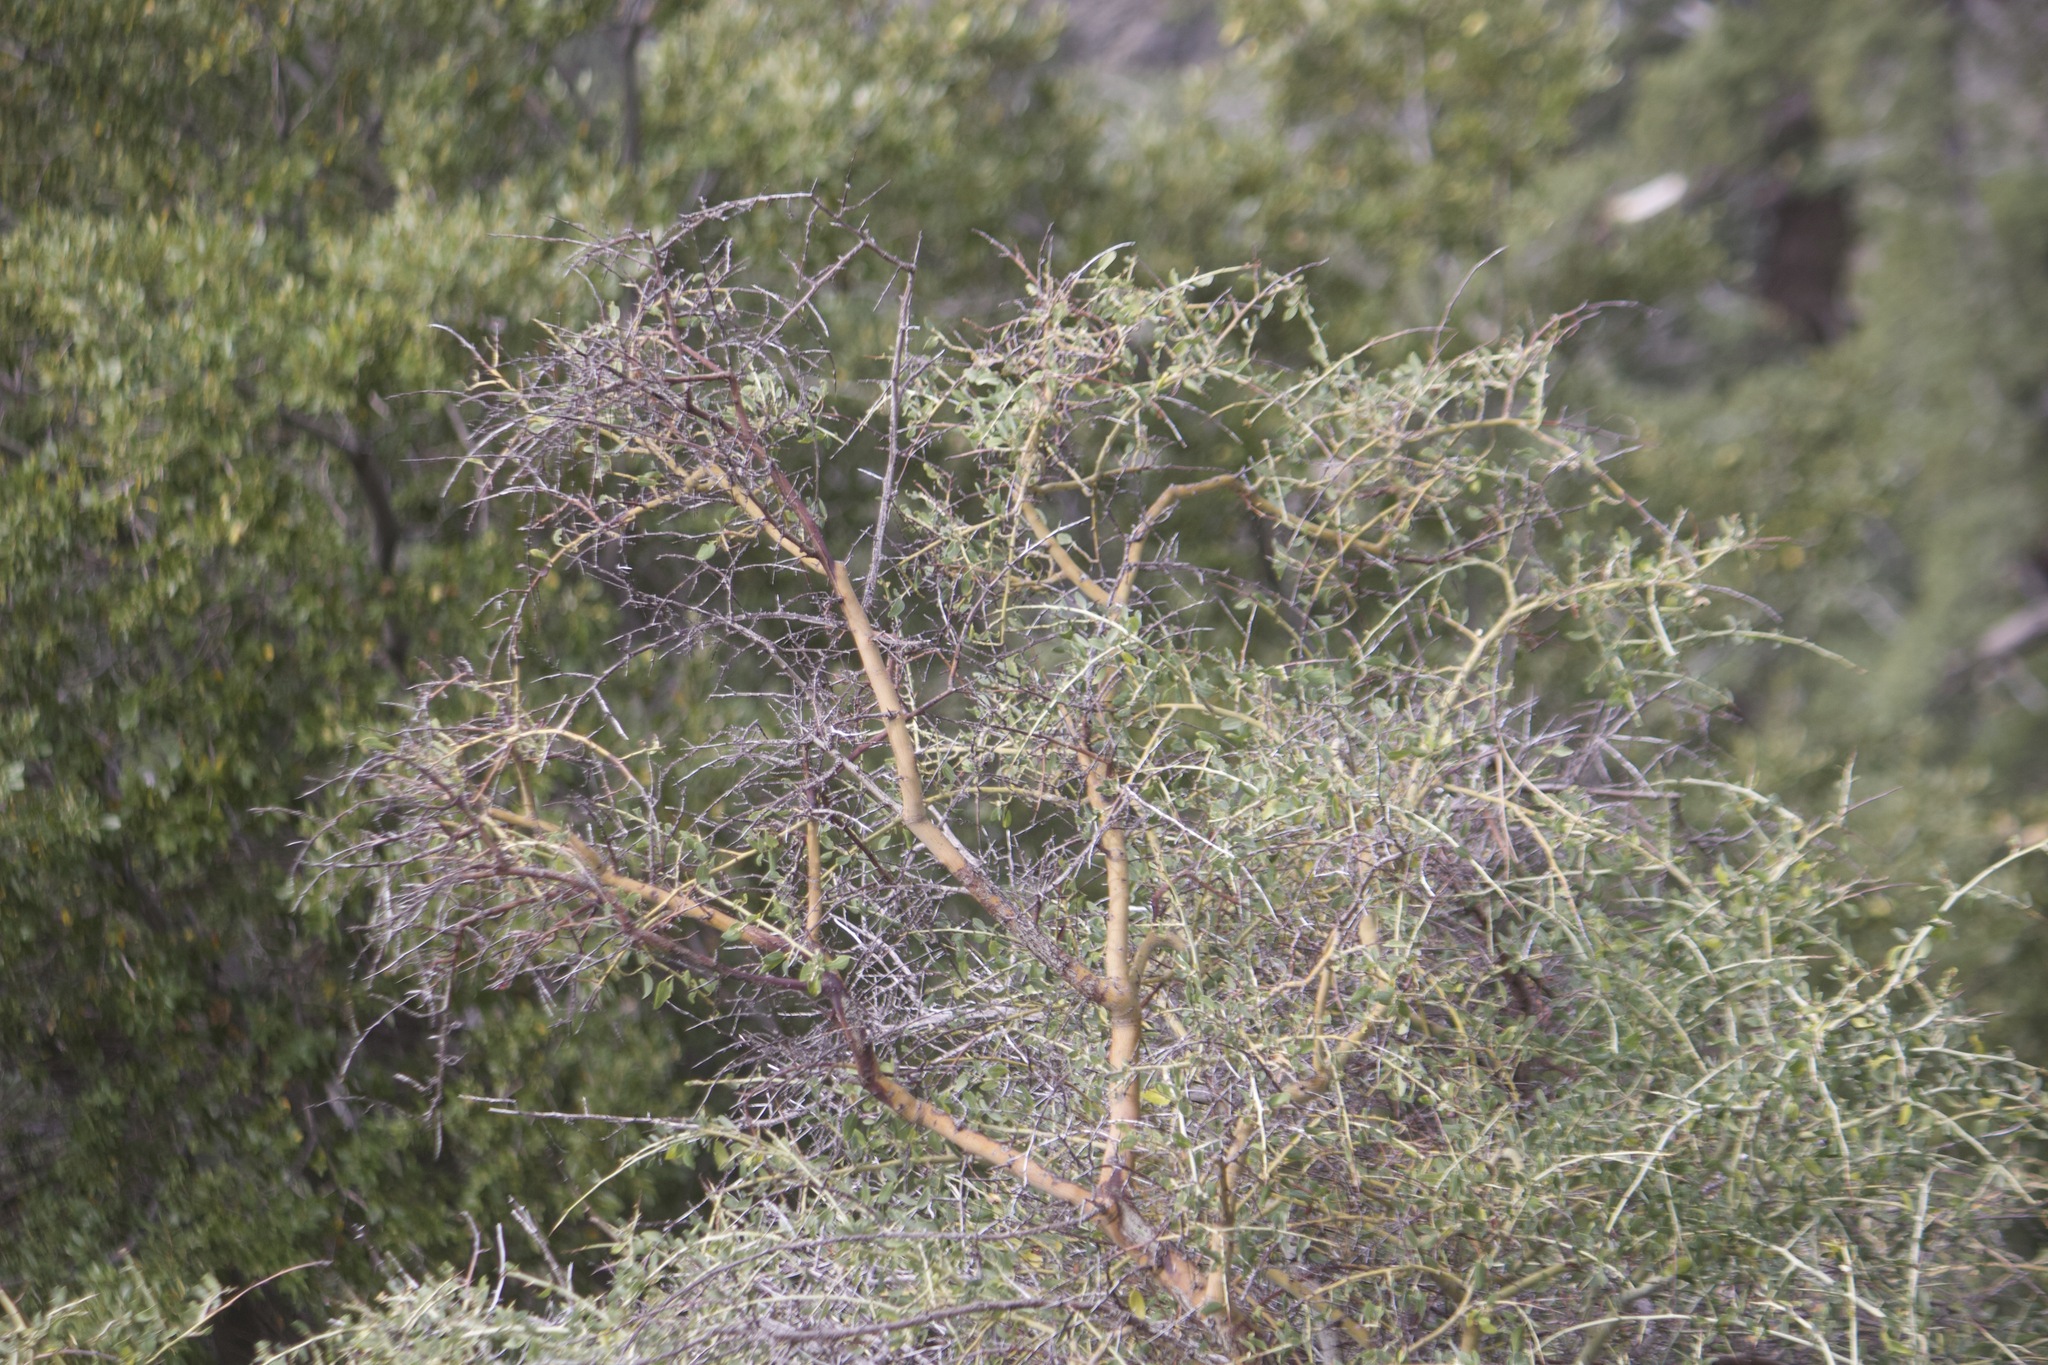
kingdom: Plantae
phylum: Tracheophyta
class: Magnoliopsida
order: Rosales
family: Rhamnaceae
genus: Ceanothus
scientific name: Ceanothus leucodermis
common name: Chaparral whitethorn
